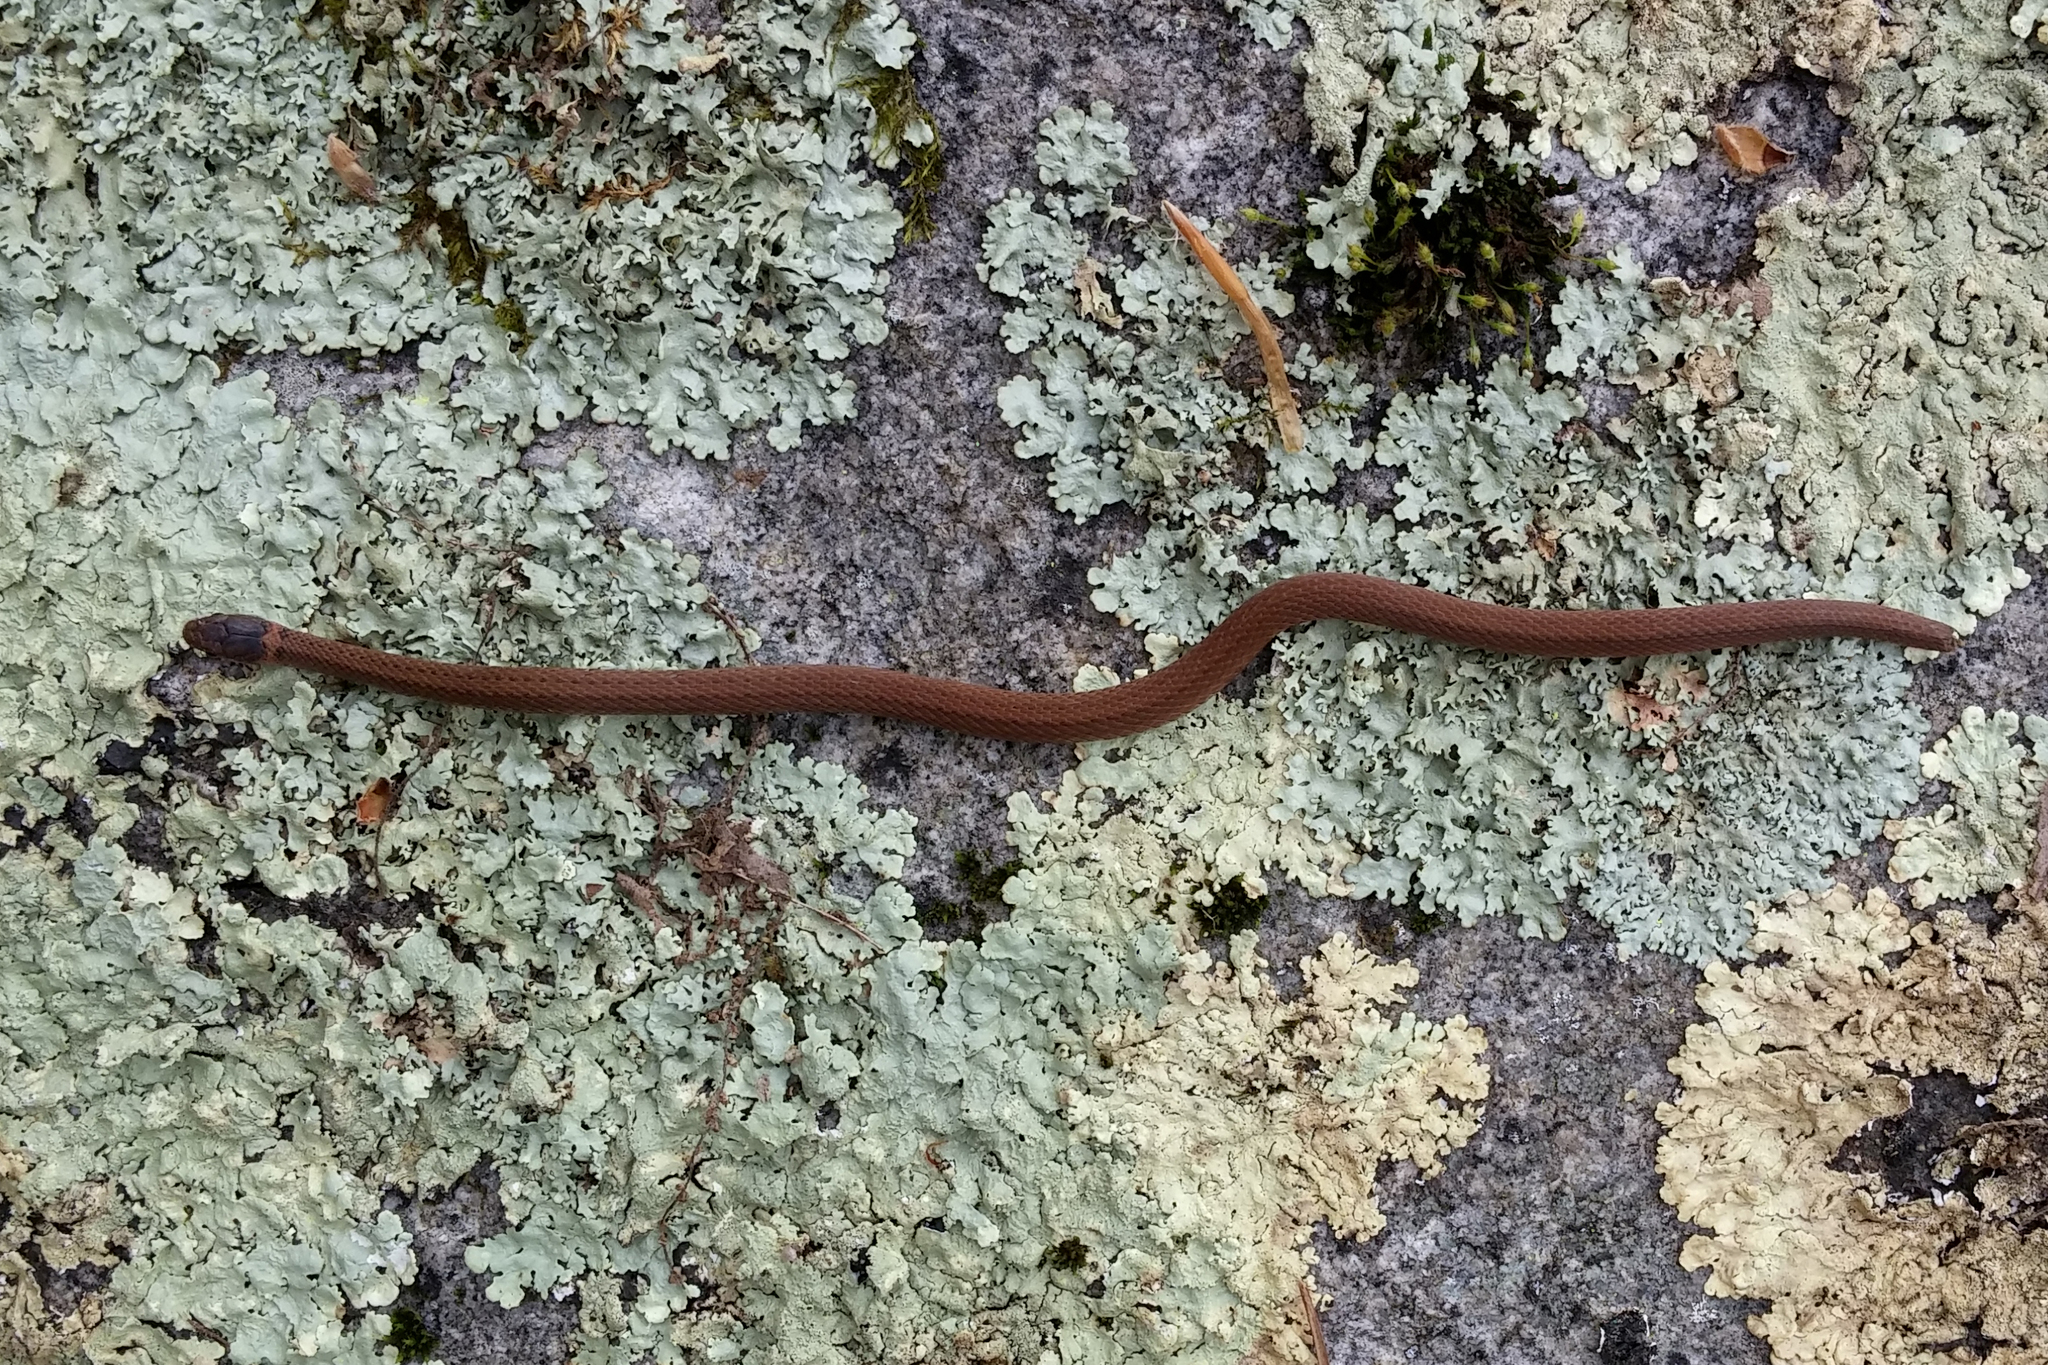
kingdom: Animalia
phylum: Chordata
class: Squamata
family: Colubridae
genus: Storeria
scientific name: Storeria occipitomaculata
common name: Redbelly snake
